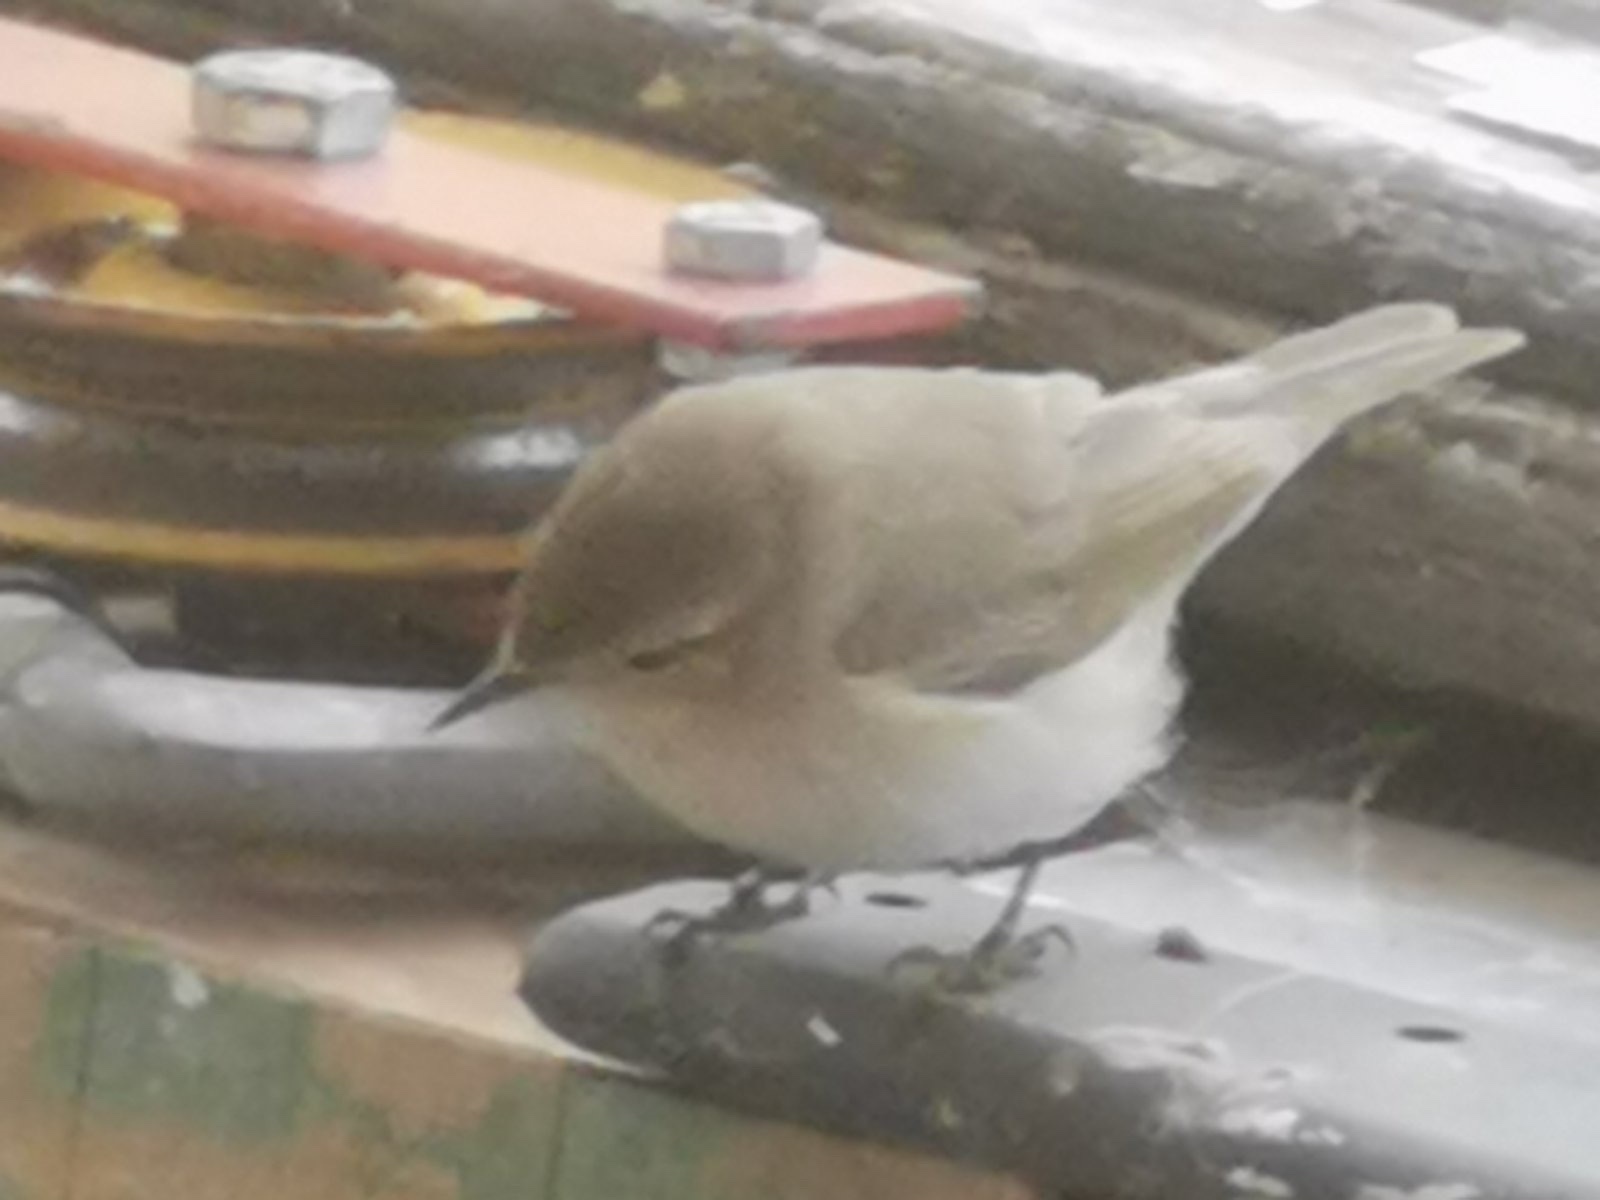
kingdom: Animalia
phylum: Chordata
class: Aves
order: Passeriformes
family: Phylloscopidae
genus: Phylloscopus
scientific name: Phylloscopus collybita
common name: Common chiffchaff
